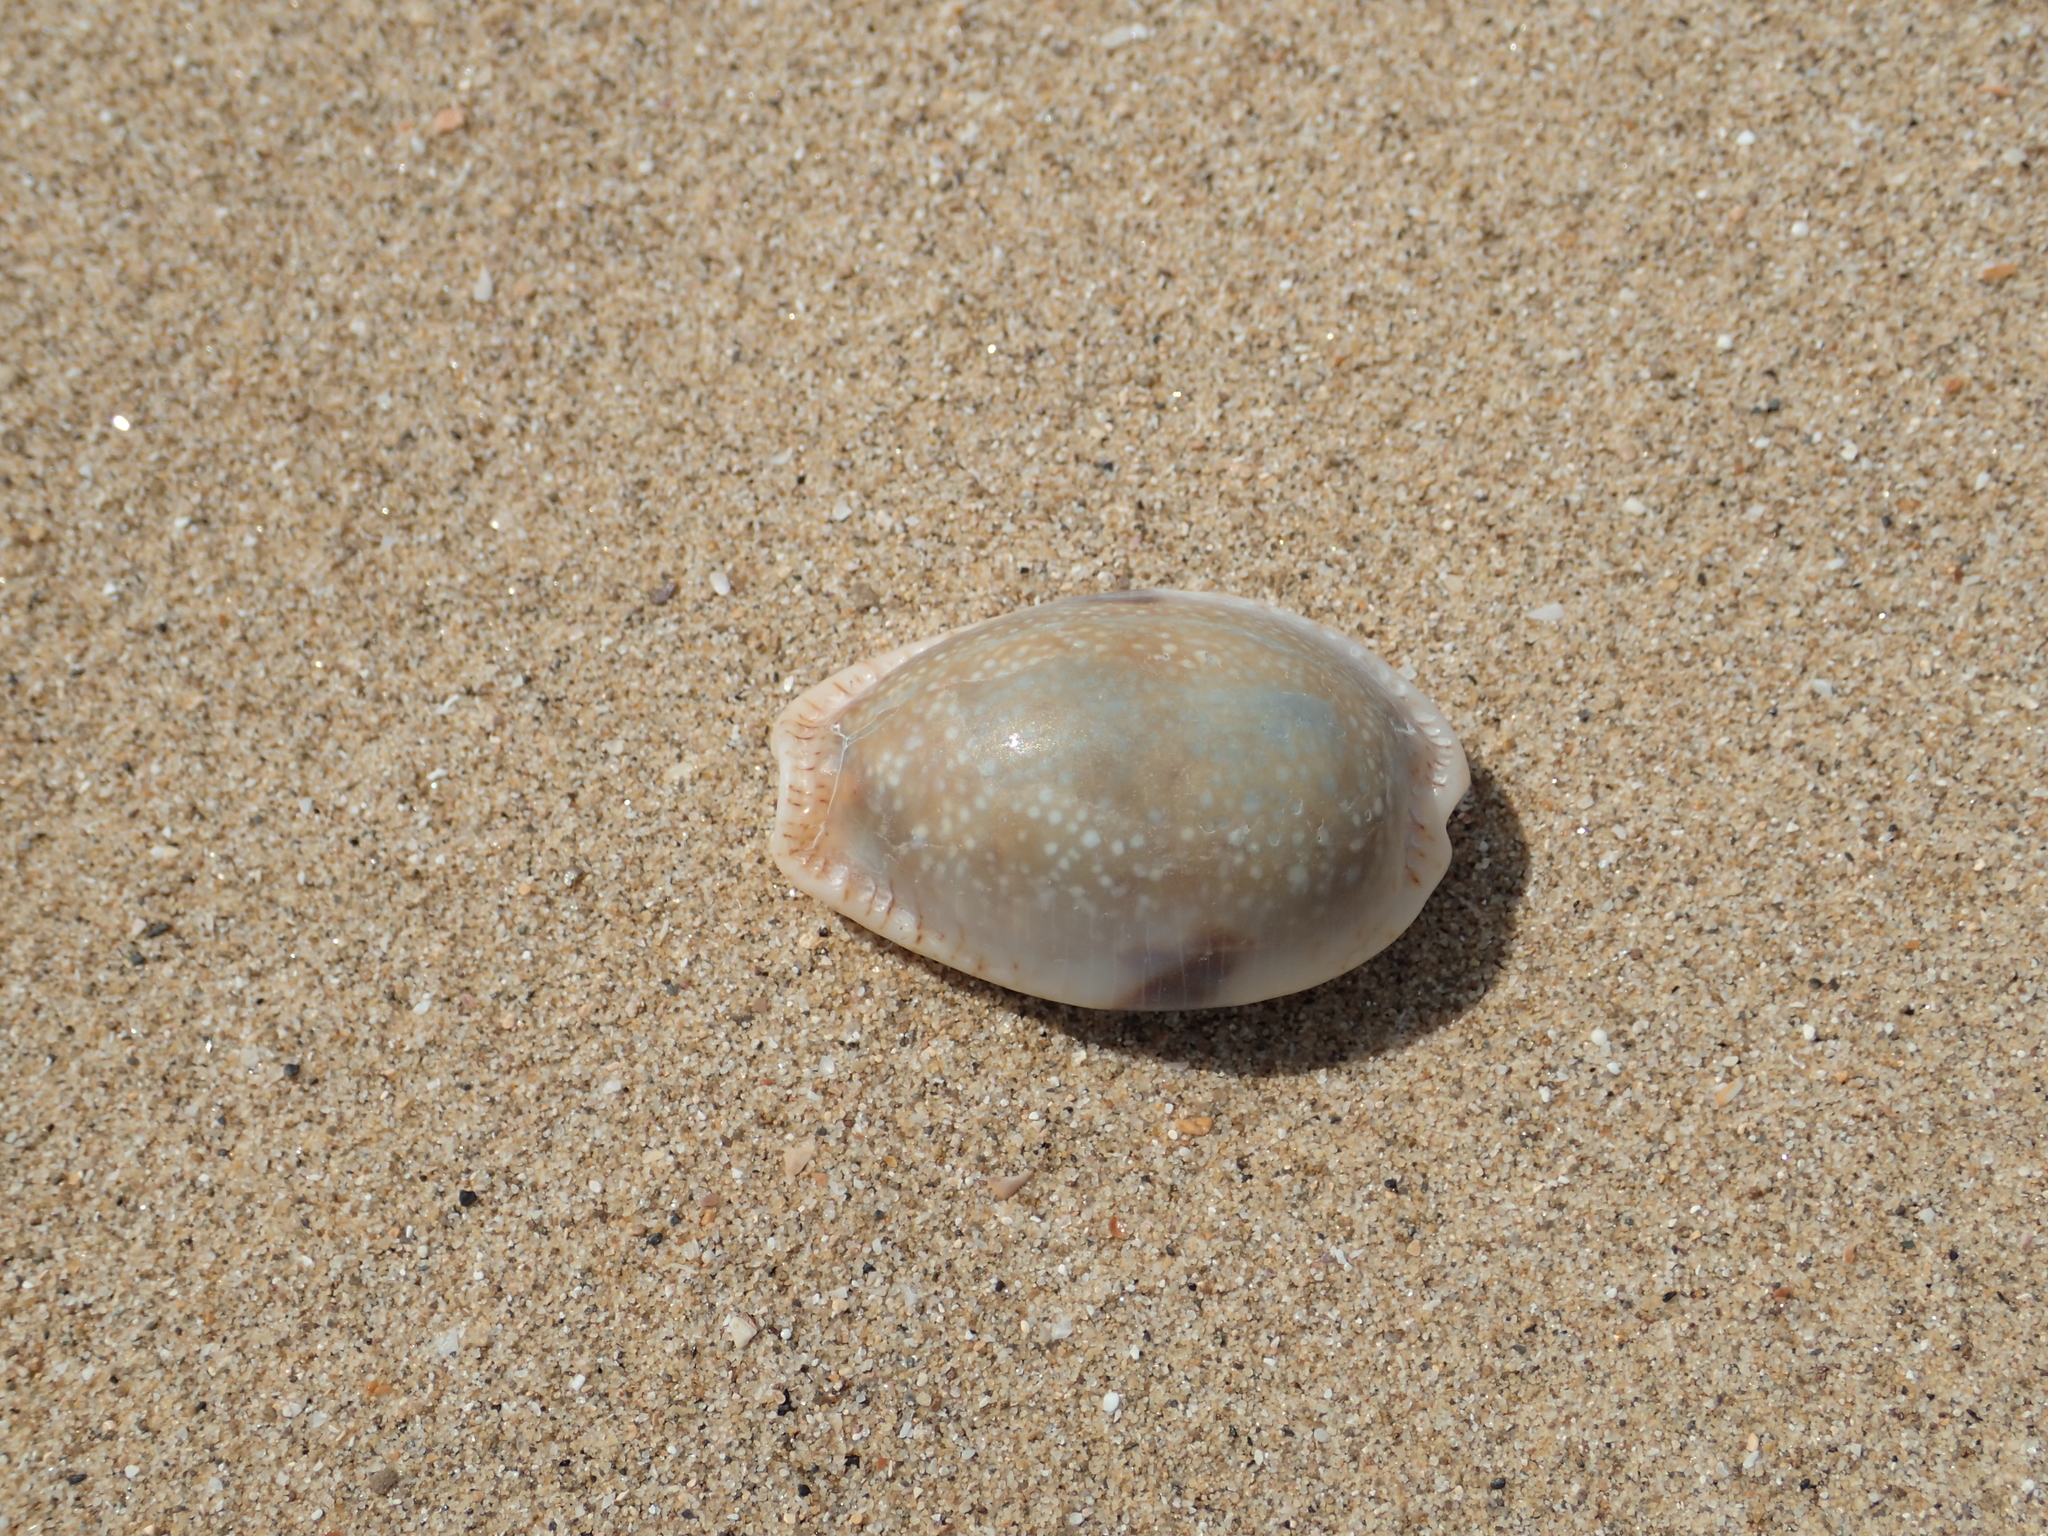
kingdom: Animalia
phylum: Mollusca
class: Gastropoda
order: Littorinimorpha
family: Cypraeidae
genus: Naria
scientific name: Naria erosa
